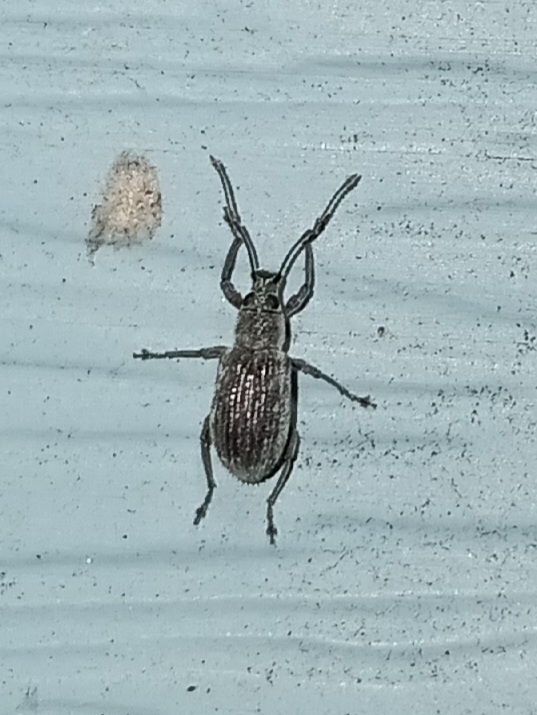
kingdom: Animalia
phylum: Arthropoda
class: Insecta
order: Coleoptera
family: Curculionidae
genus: Cyrtepistomus
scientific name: Cyrtepistomus castaneus
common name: Weevil
